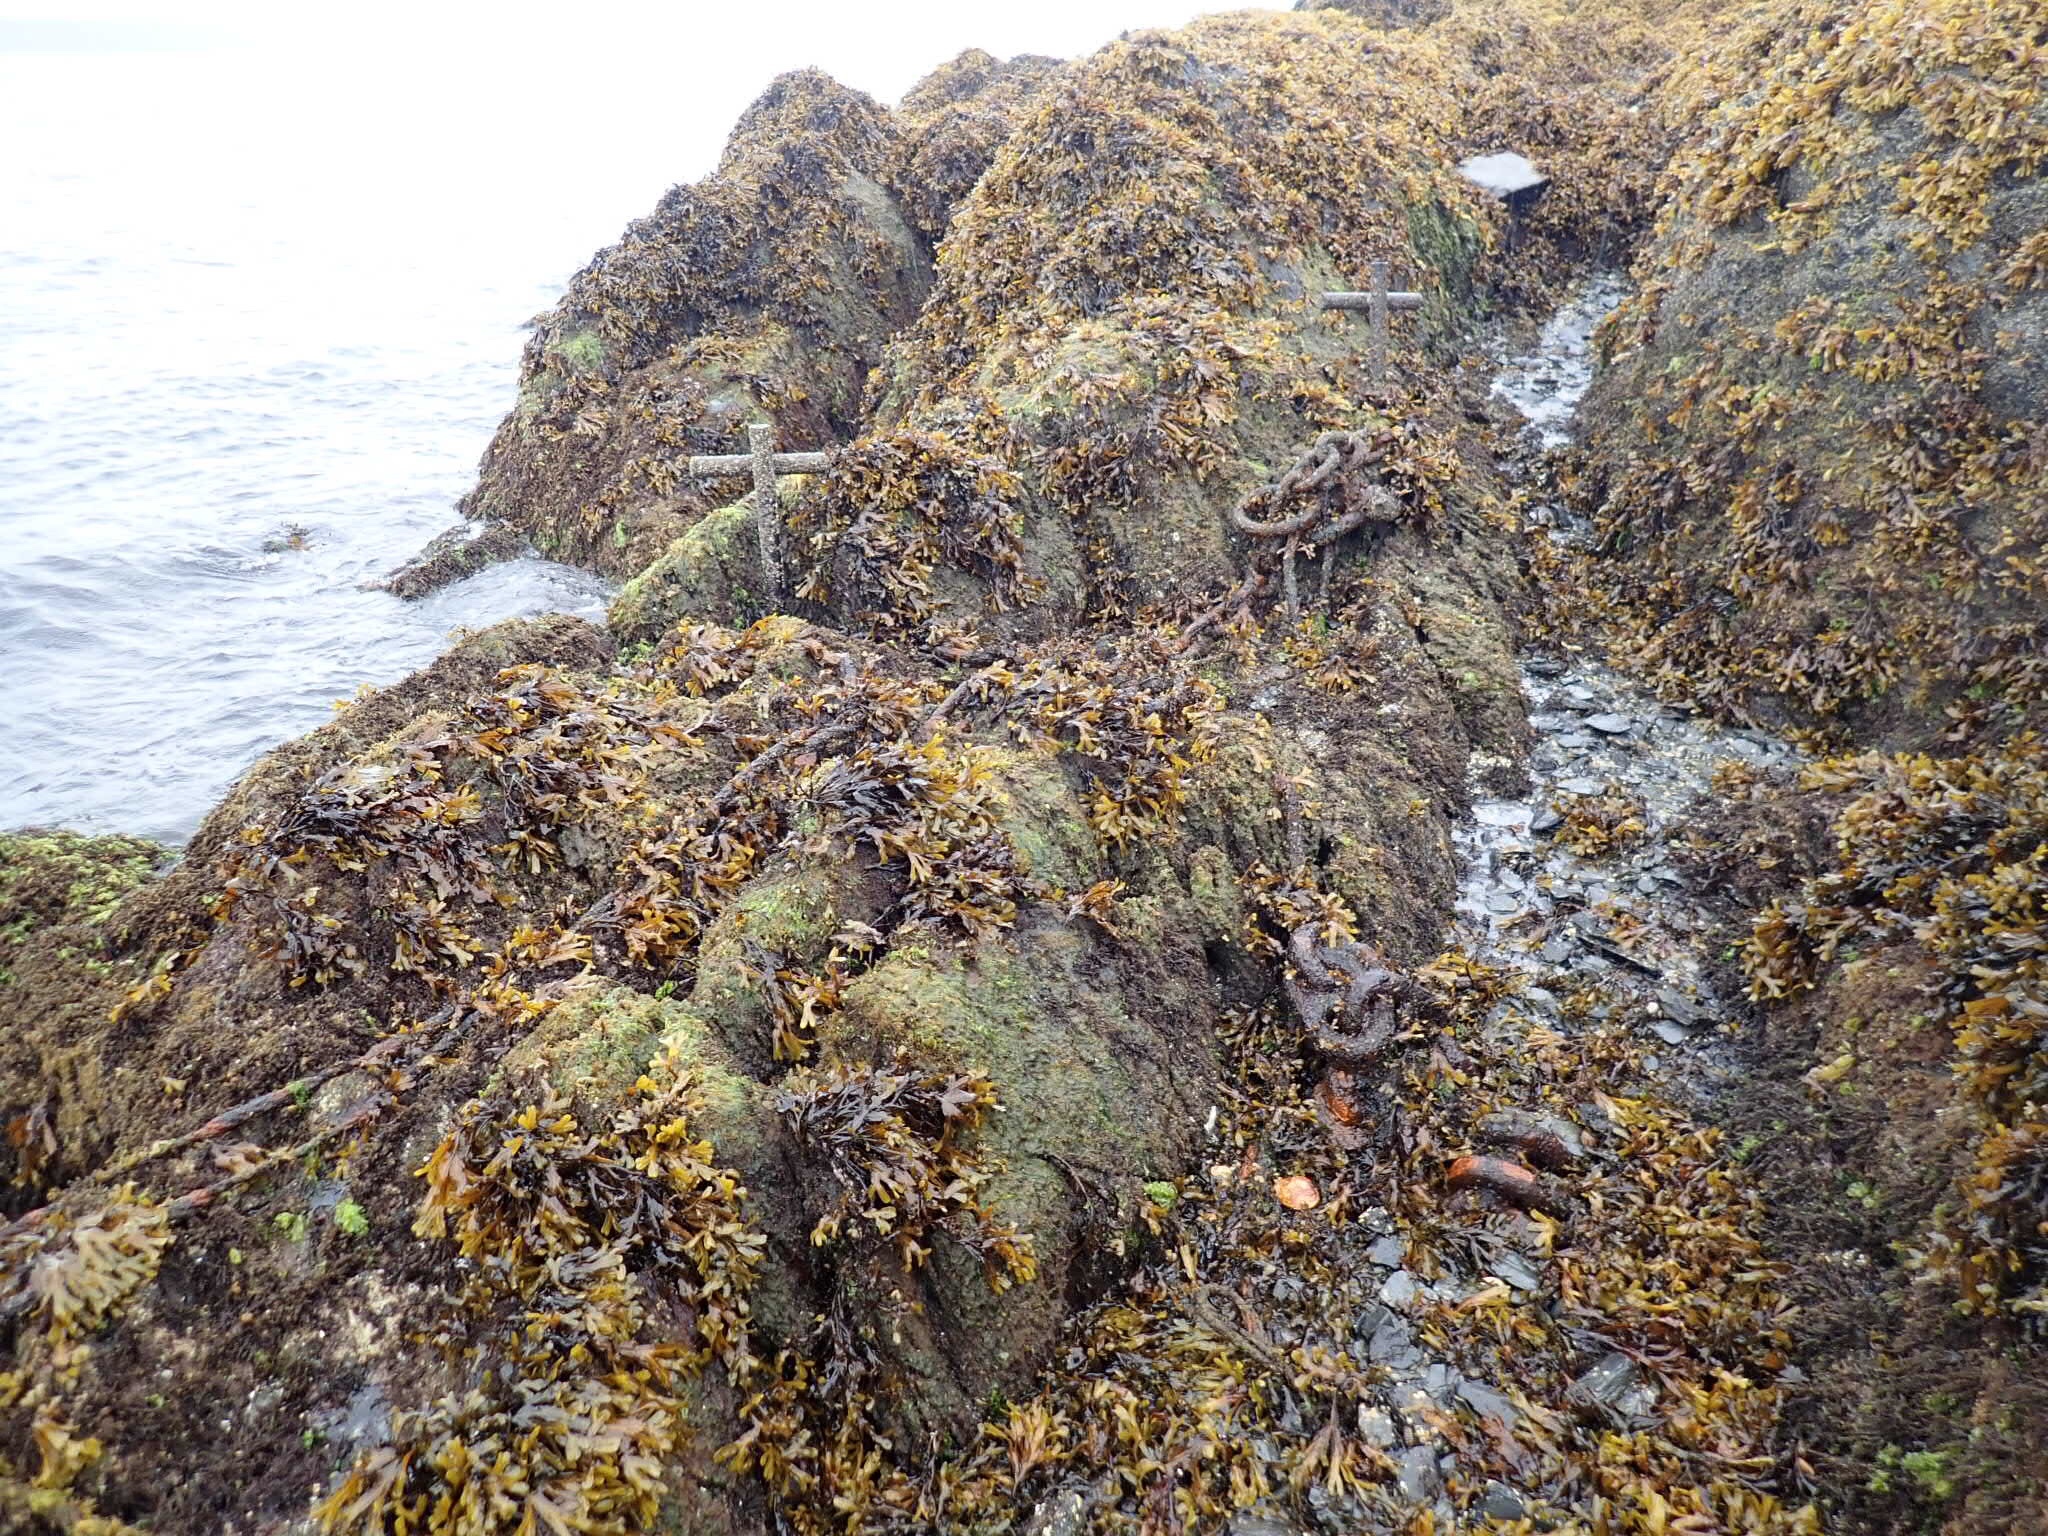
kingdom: Chromista
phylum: Ochrophyta
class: Phaeophyceae
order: Fucales
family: Fucaceae
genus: Fucus
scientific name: Fucus distichus
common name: Rockweed
